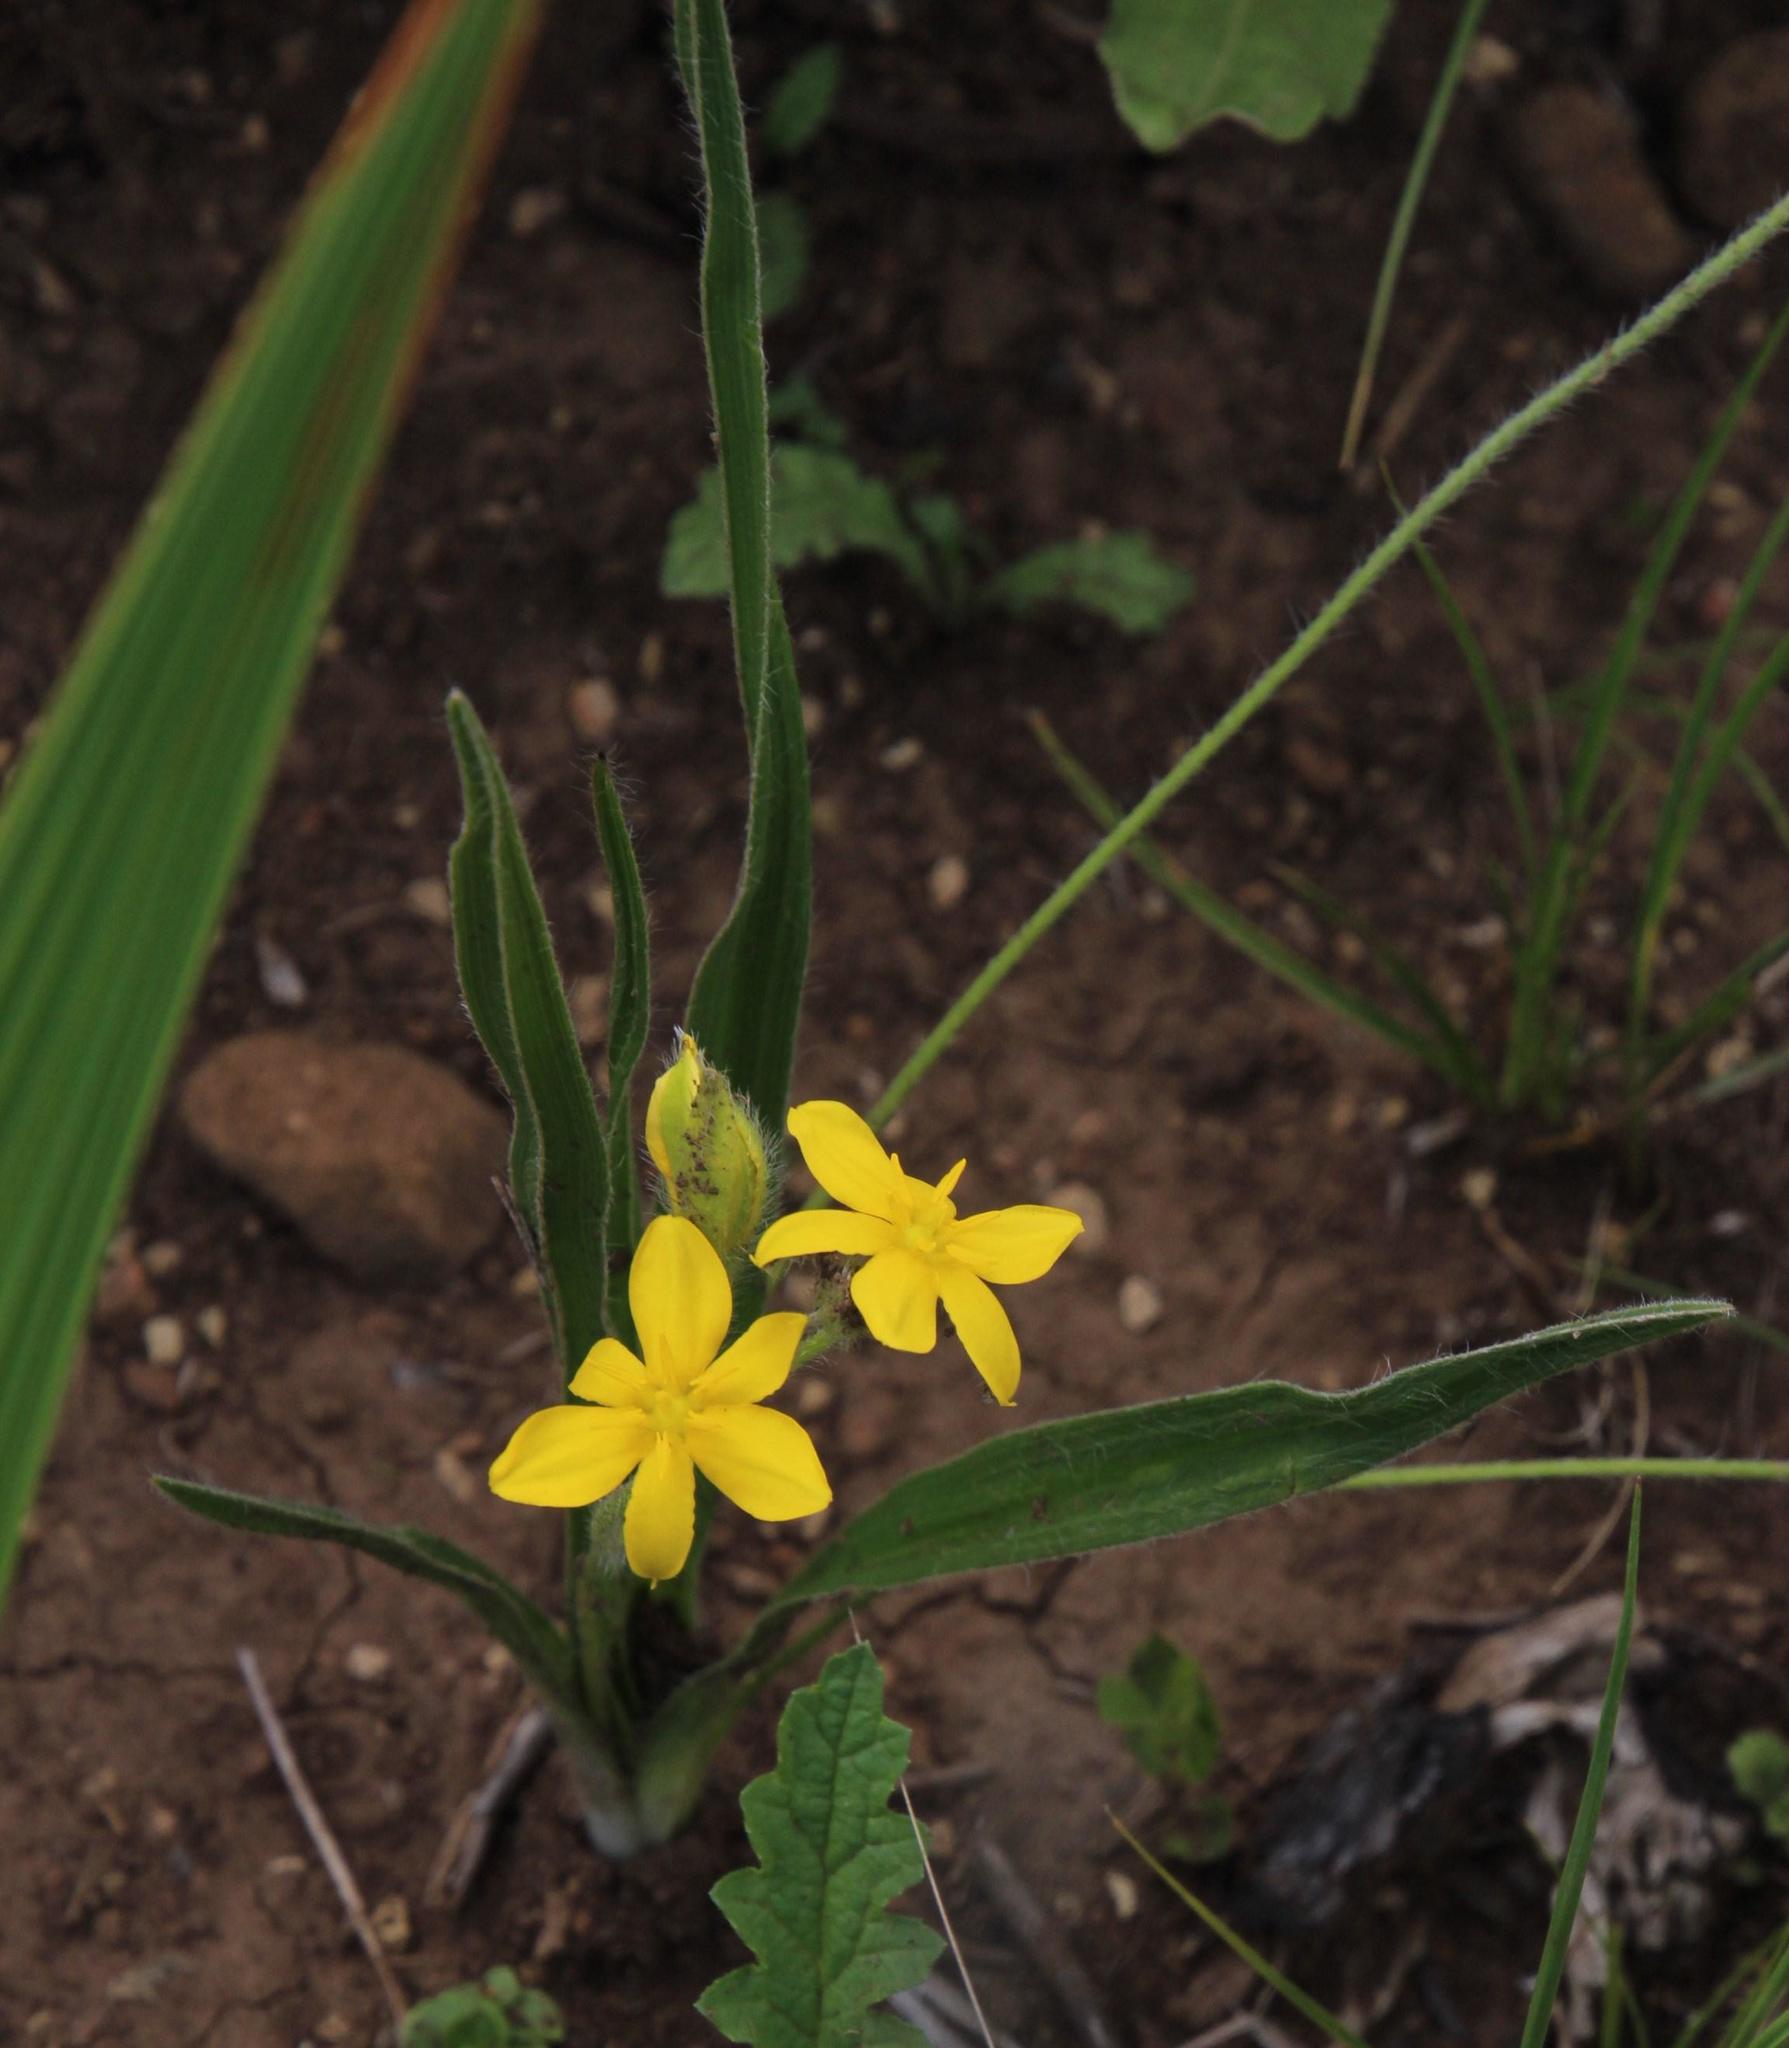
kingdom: Plantae
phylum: Tracheophyta
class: Liliopsida
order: Asparagales
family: Hypoxidaceae
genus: Hypoxis
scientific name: Hypoxis interjecta
